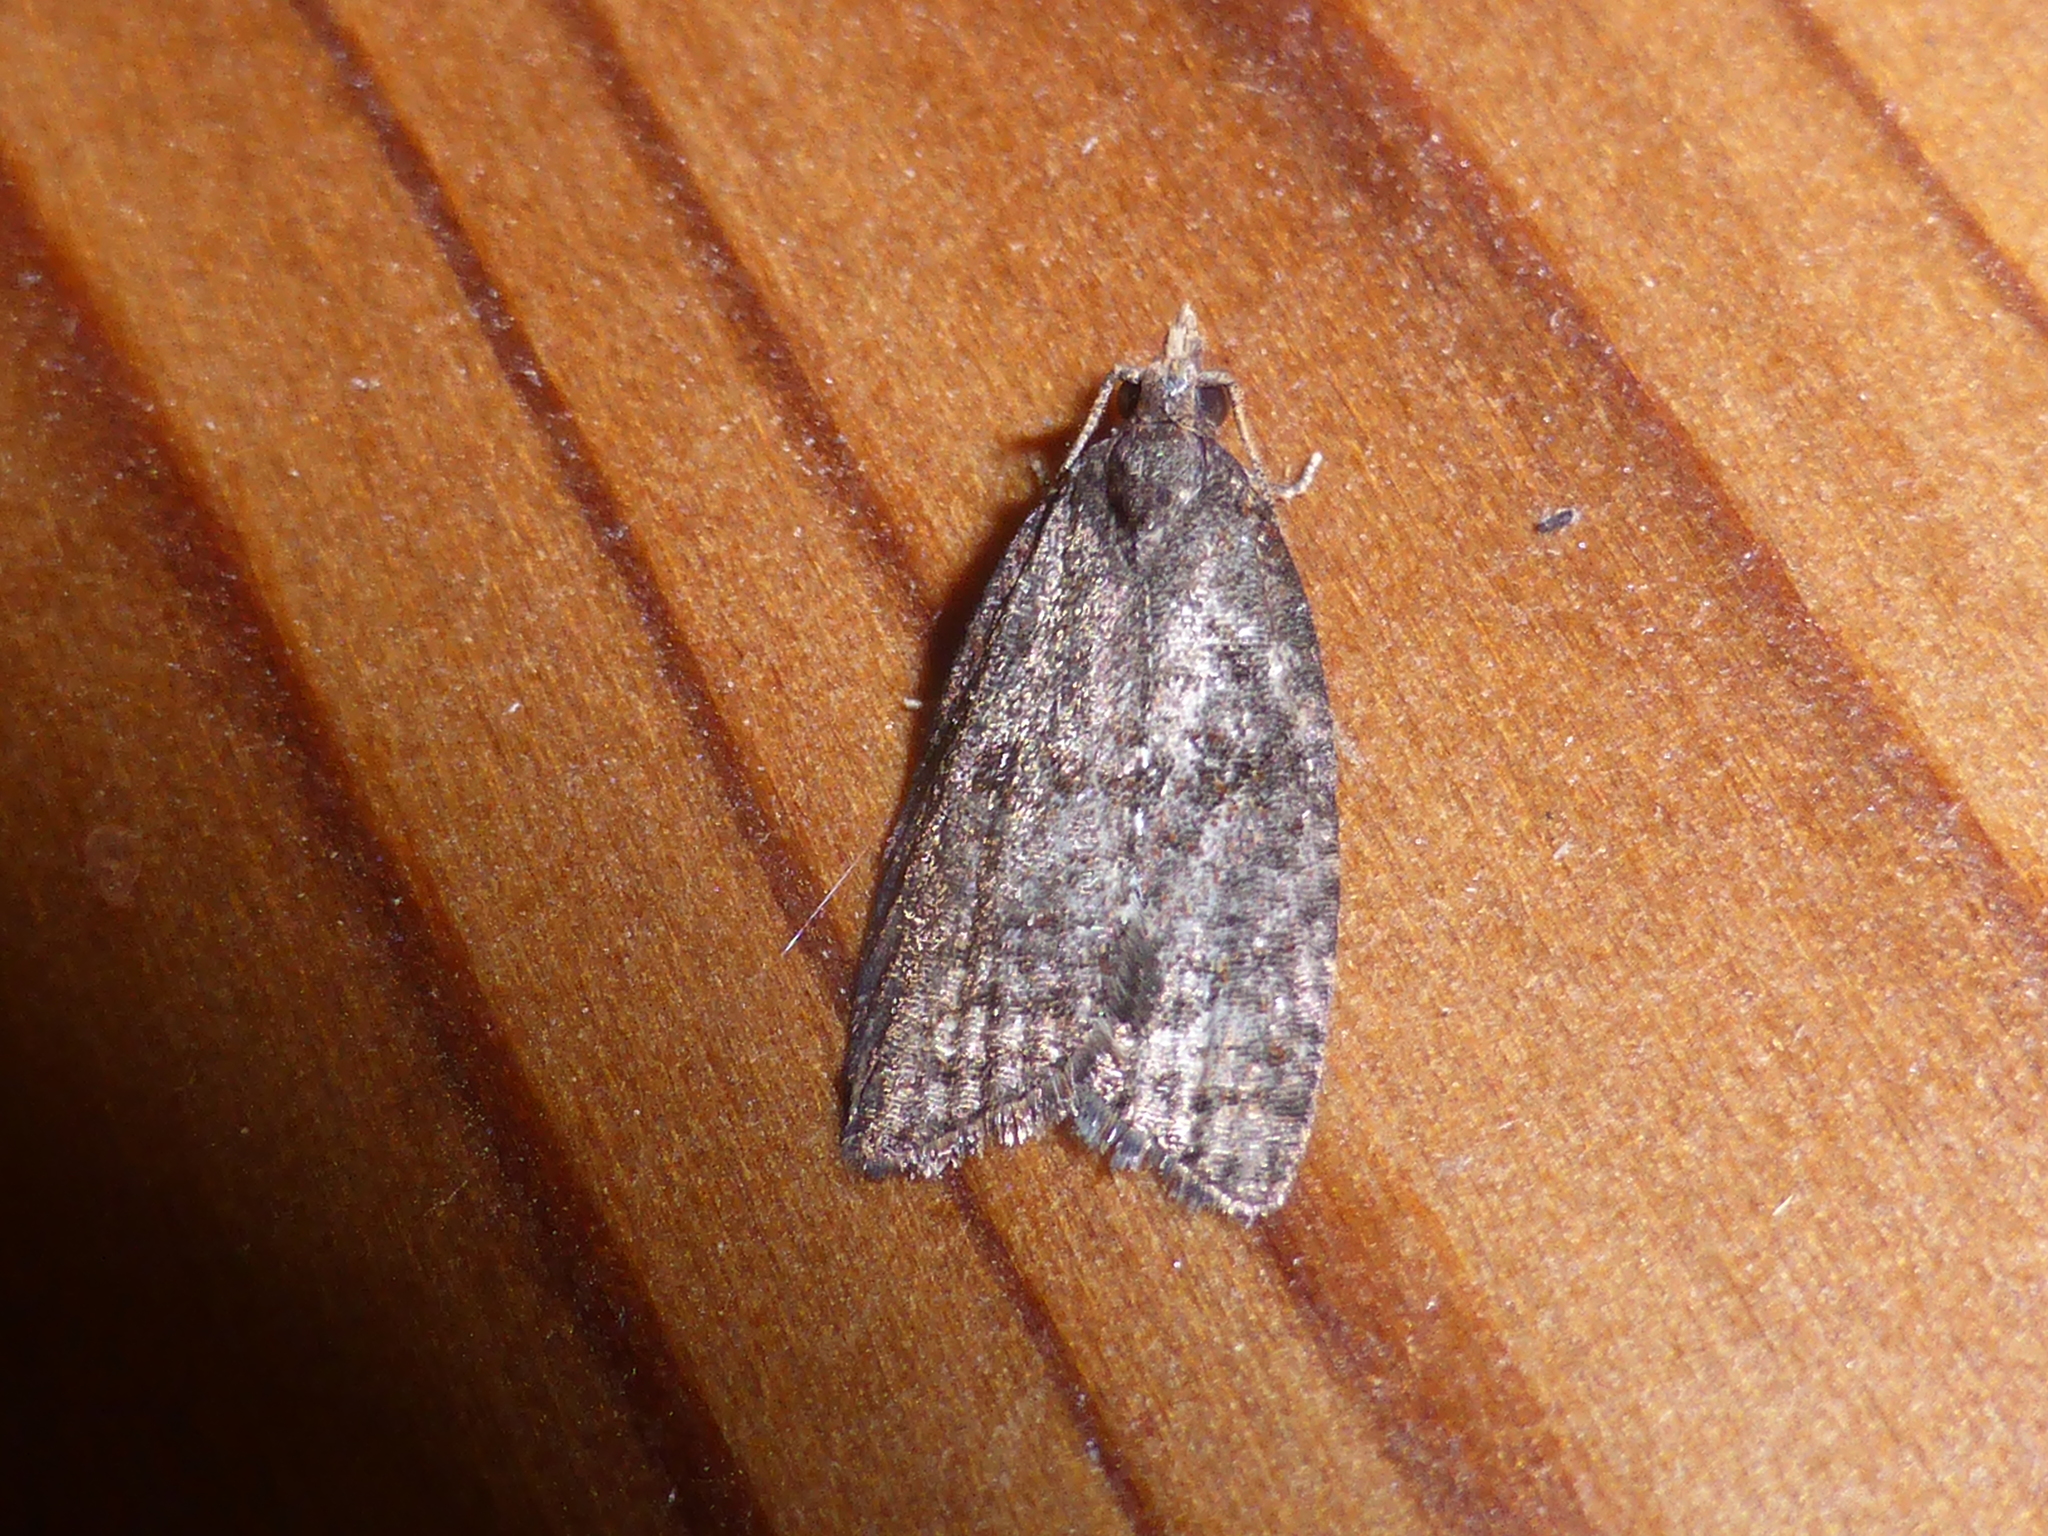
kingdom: Animalia
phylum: Arthropoda
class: Insecta
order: Lepidoptera
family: Tortricidae
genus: Capua
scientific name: Capua intractana
